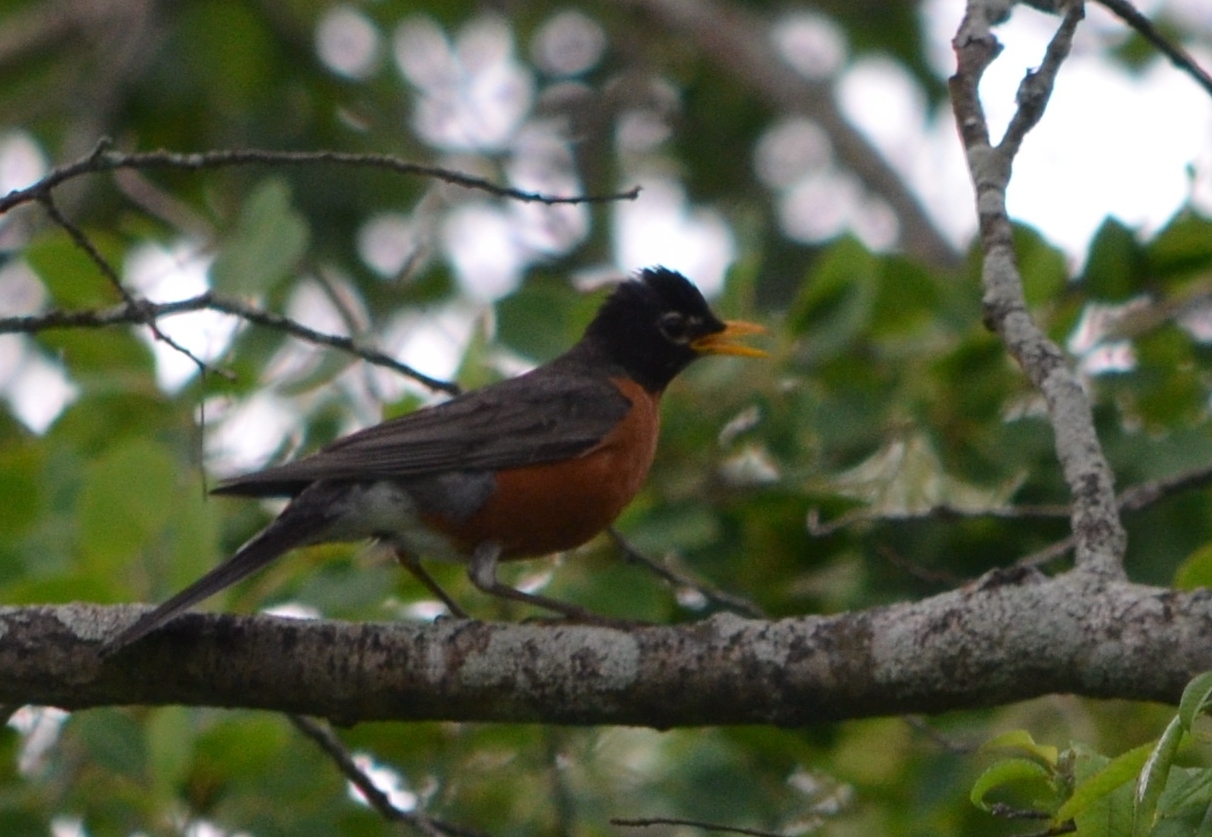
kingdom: Animalia
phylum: Chordata
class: Aves
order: Passeriformes
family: Turdidae
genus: Turdus
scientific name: Turdus migratorius
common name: American robin
